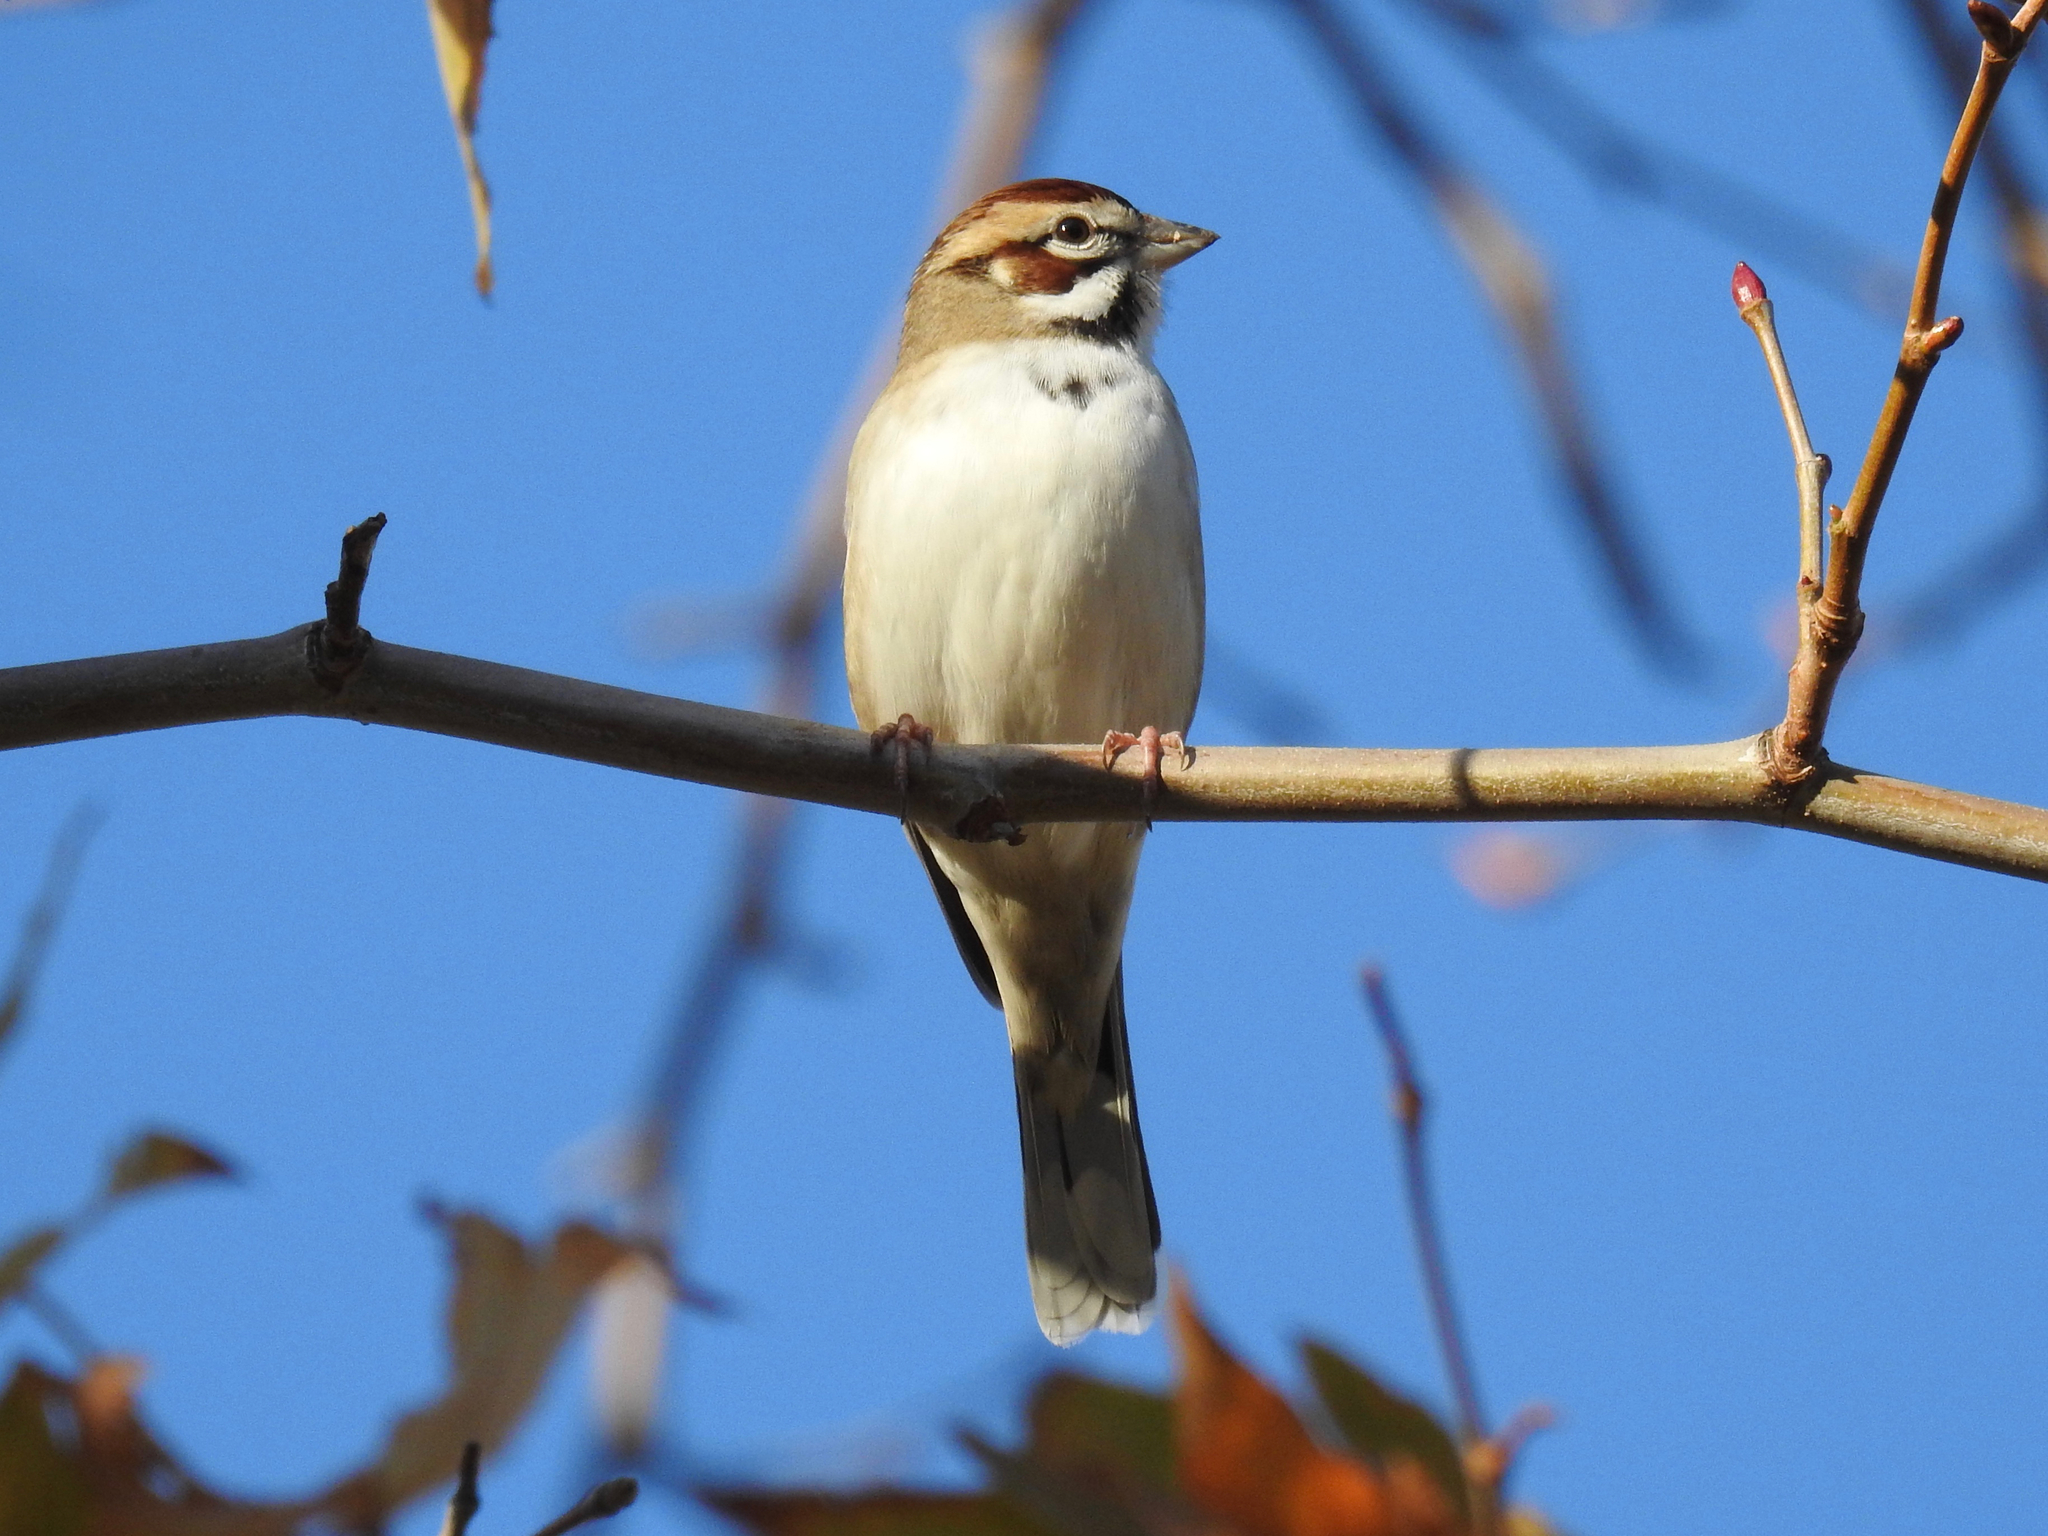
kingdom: Animalia
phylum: Chordata
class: Aves
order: Passeriformes
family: Passerellidae
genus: Chondestes
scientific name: Chondestes grammacus
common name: Lark sparrow
